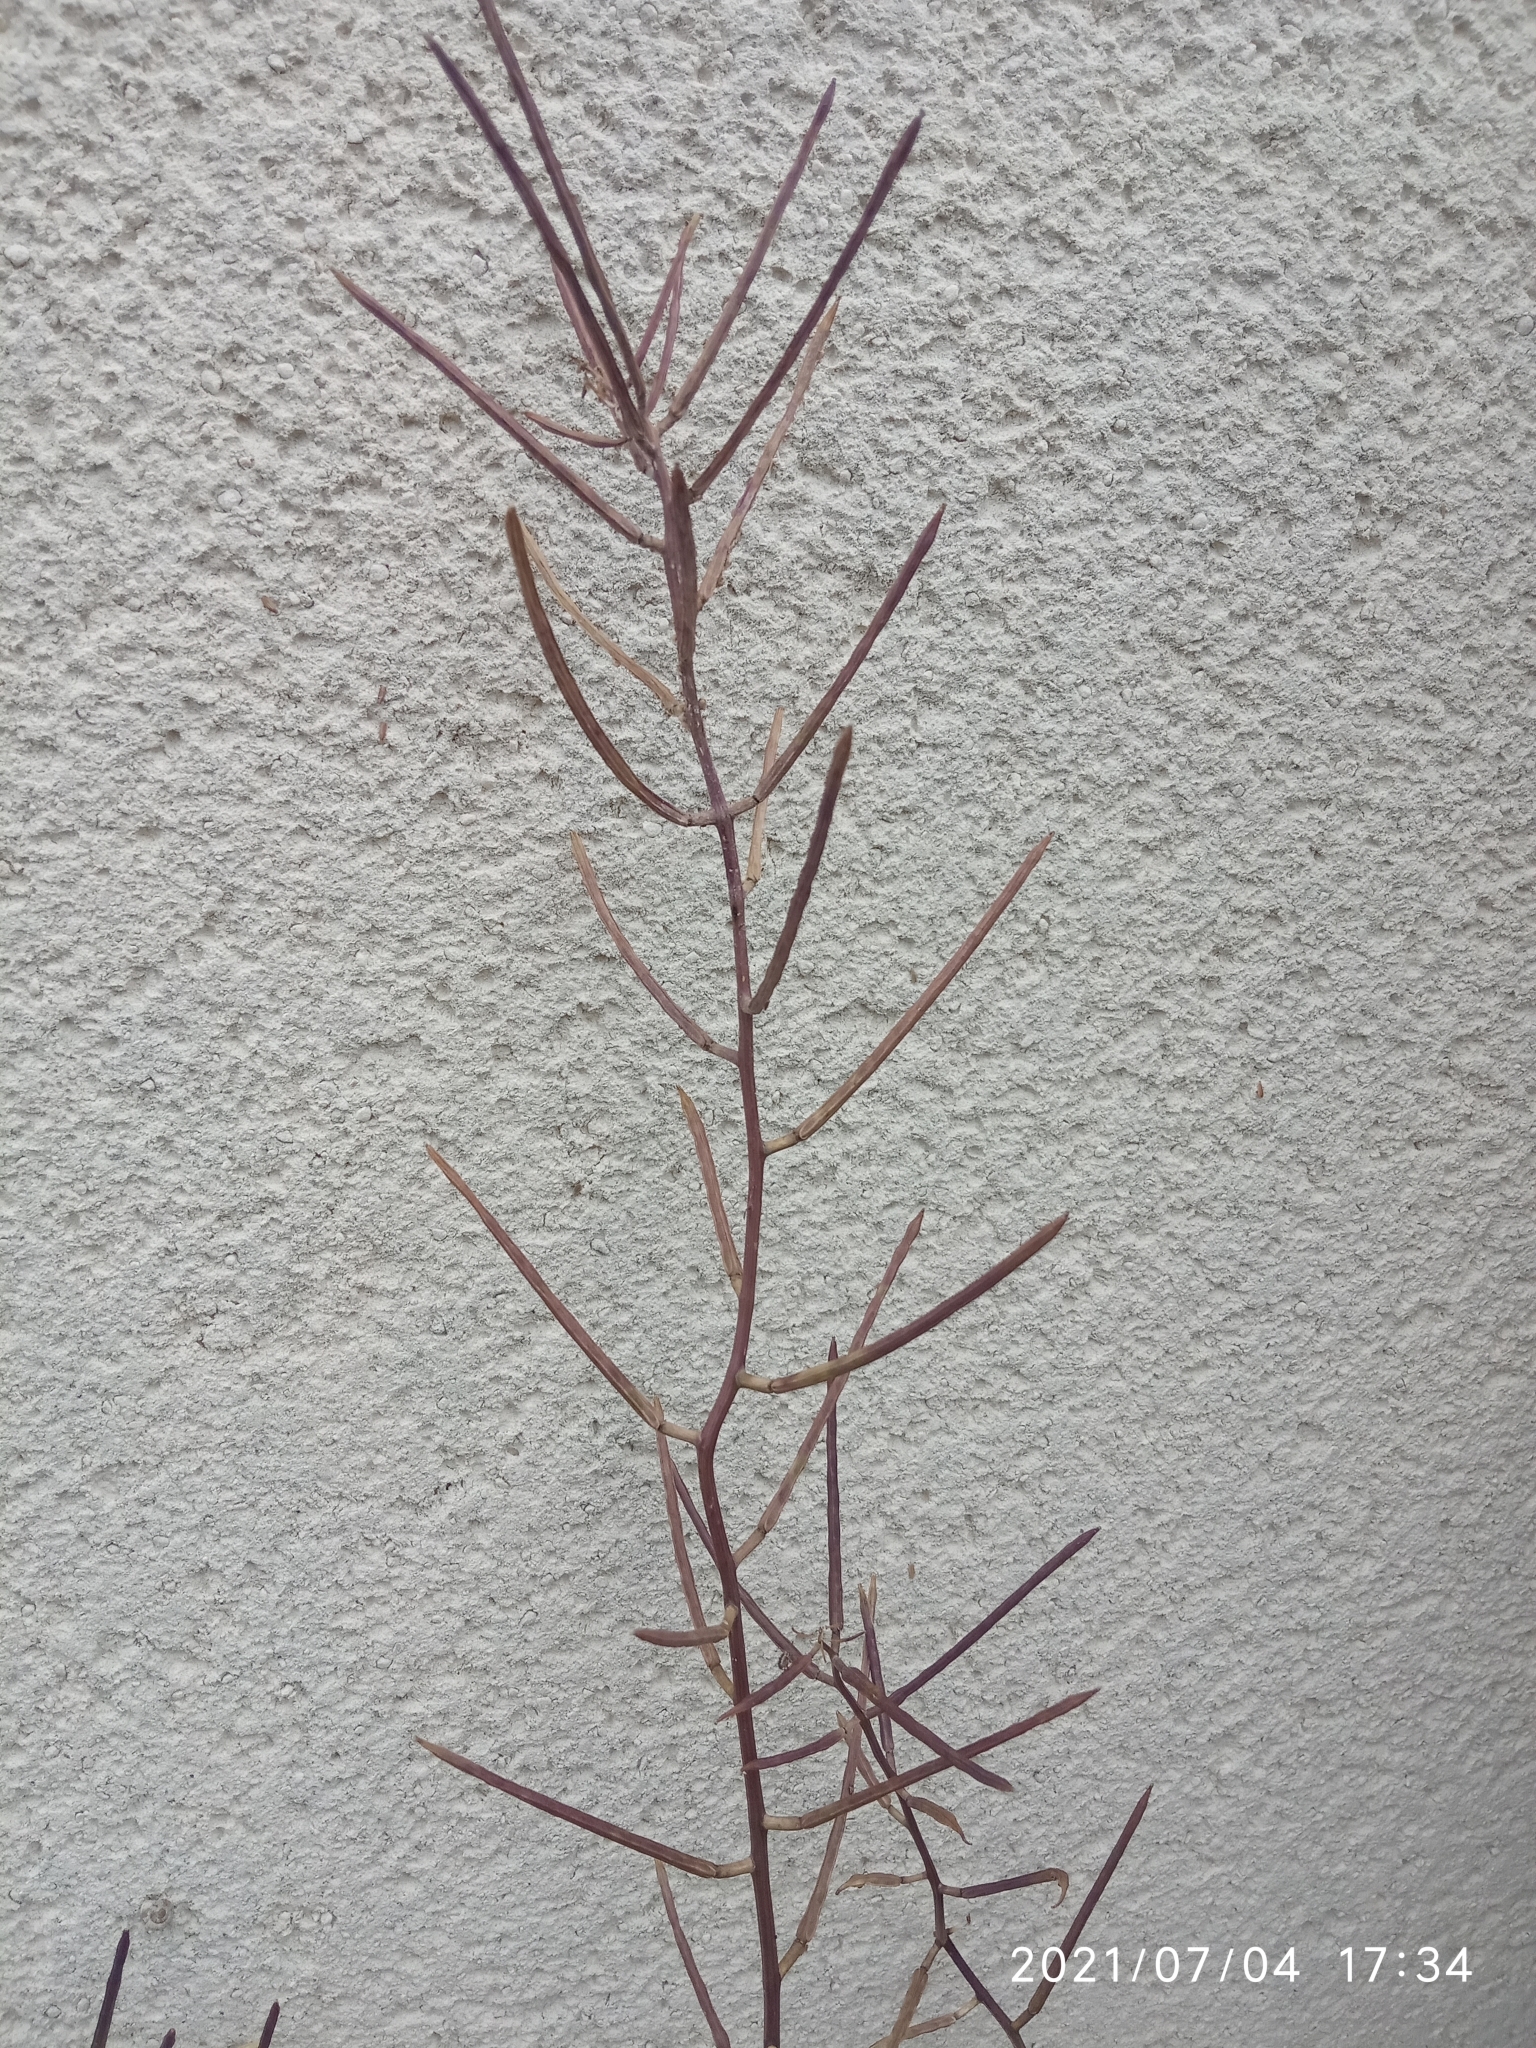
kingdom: Plantae
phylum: Tracheophyta
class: Magnoliopsida
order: Brassicales
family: Brassicaceae
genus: Alliaria
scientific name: Alliaria petiolata
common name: Garlic mustard
